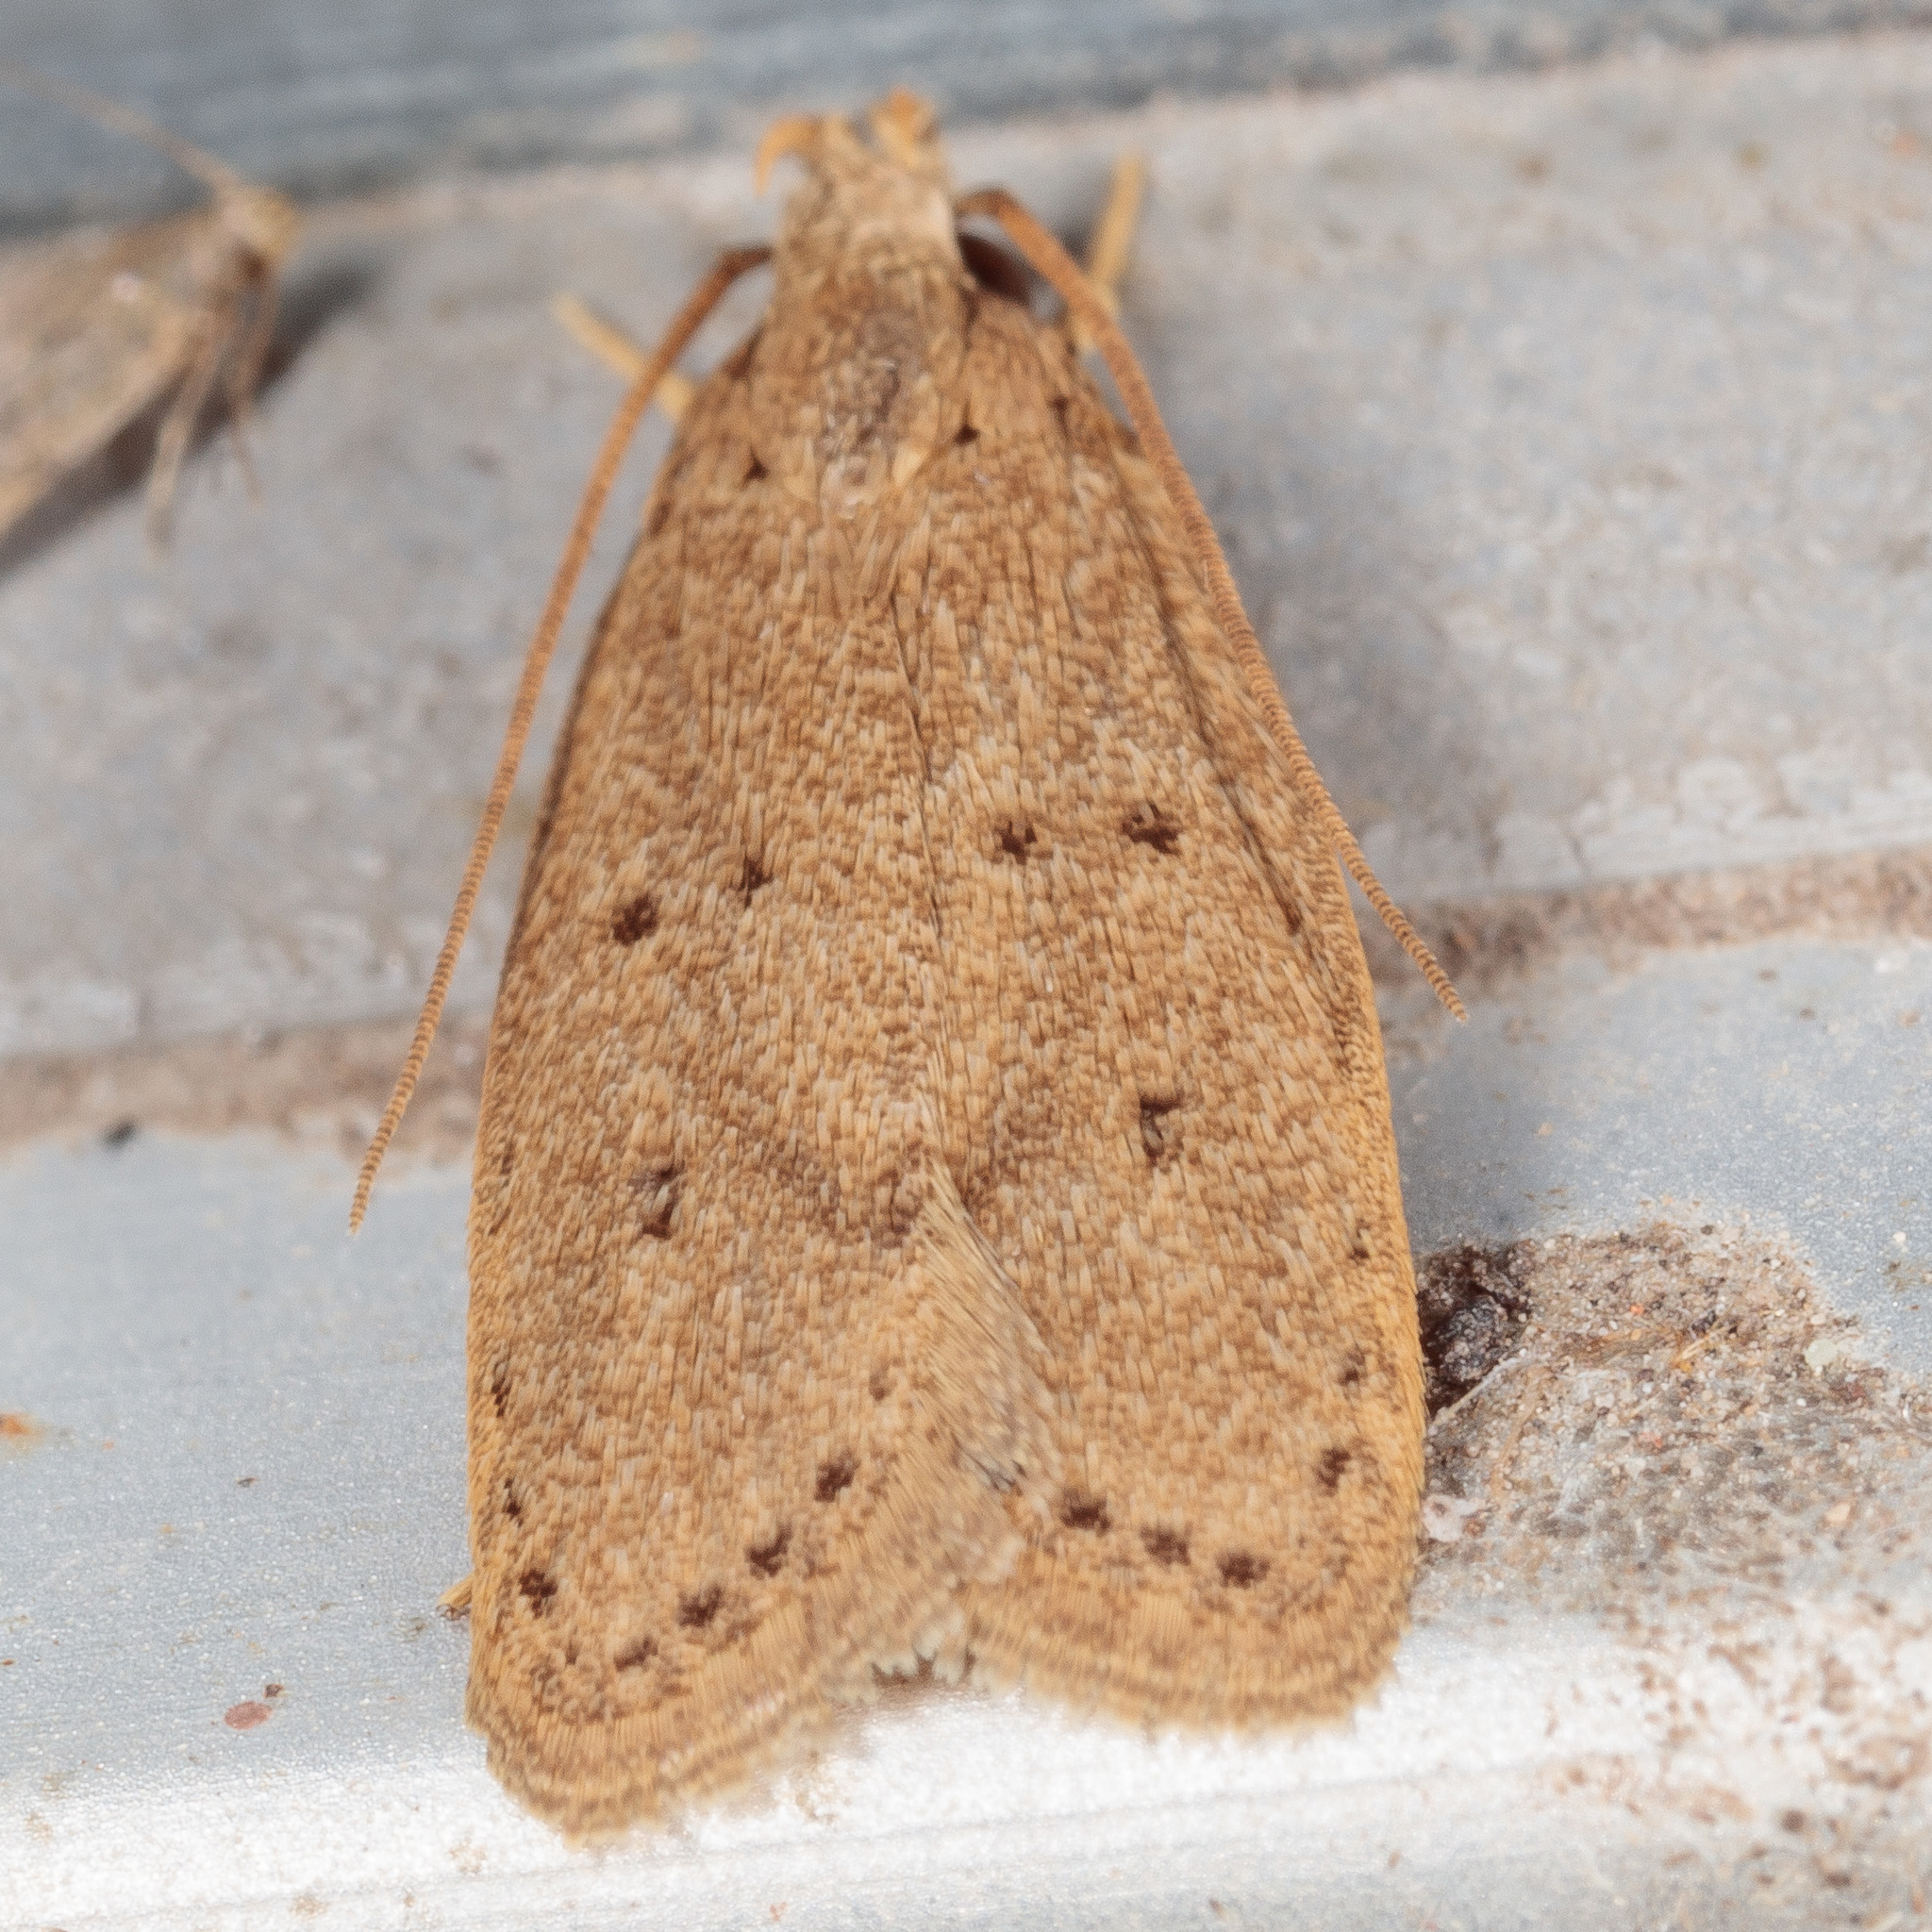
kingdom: Animalia
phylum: Arthropoda
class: Insecta
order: Lepidoptera
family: Autostichidae
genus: Autosticha
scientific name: Autosticha kyotensis
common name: Kyoto moth
